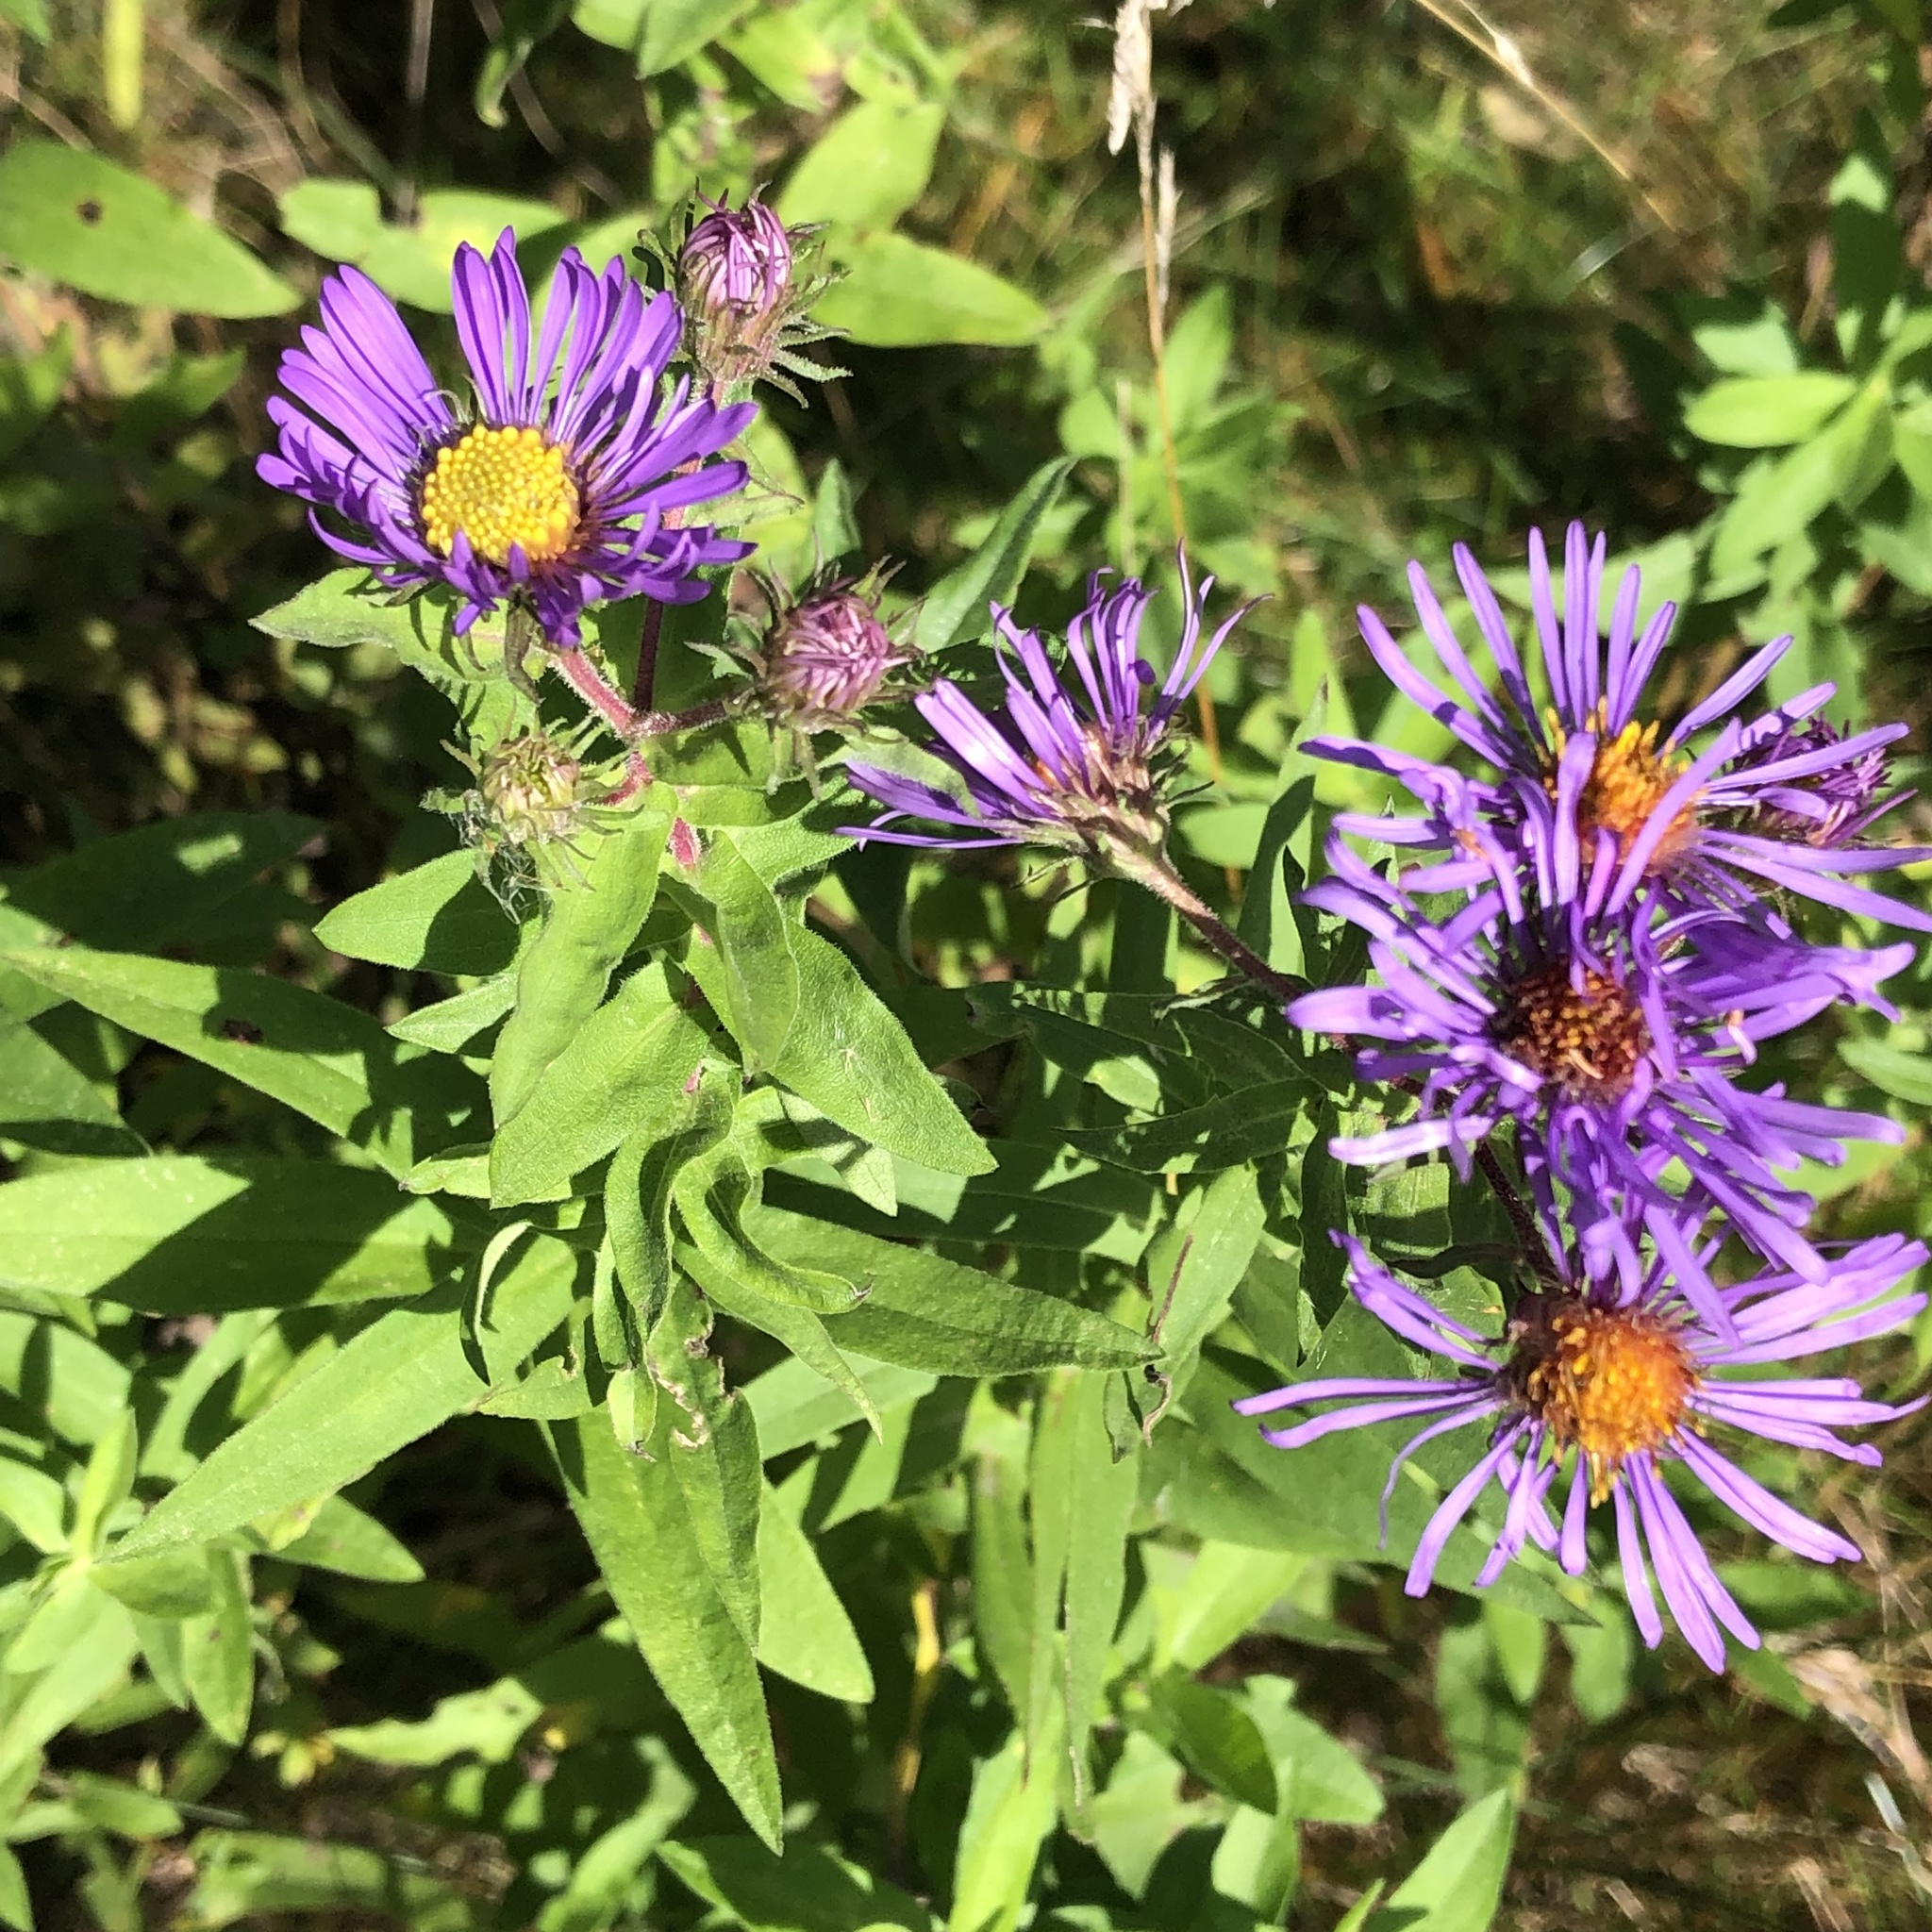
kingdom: Plantae
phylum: Tracheophyta
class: Magnoliopsida
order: Asterales
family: Asteraceae
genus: Symphyotrichum
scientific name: Symphyotrichum novae-angliae
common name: Michaelmas daisy
